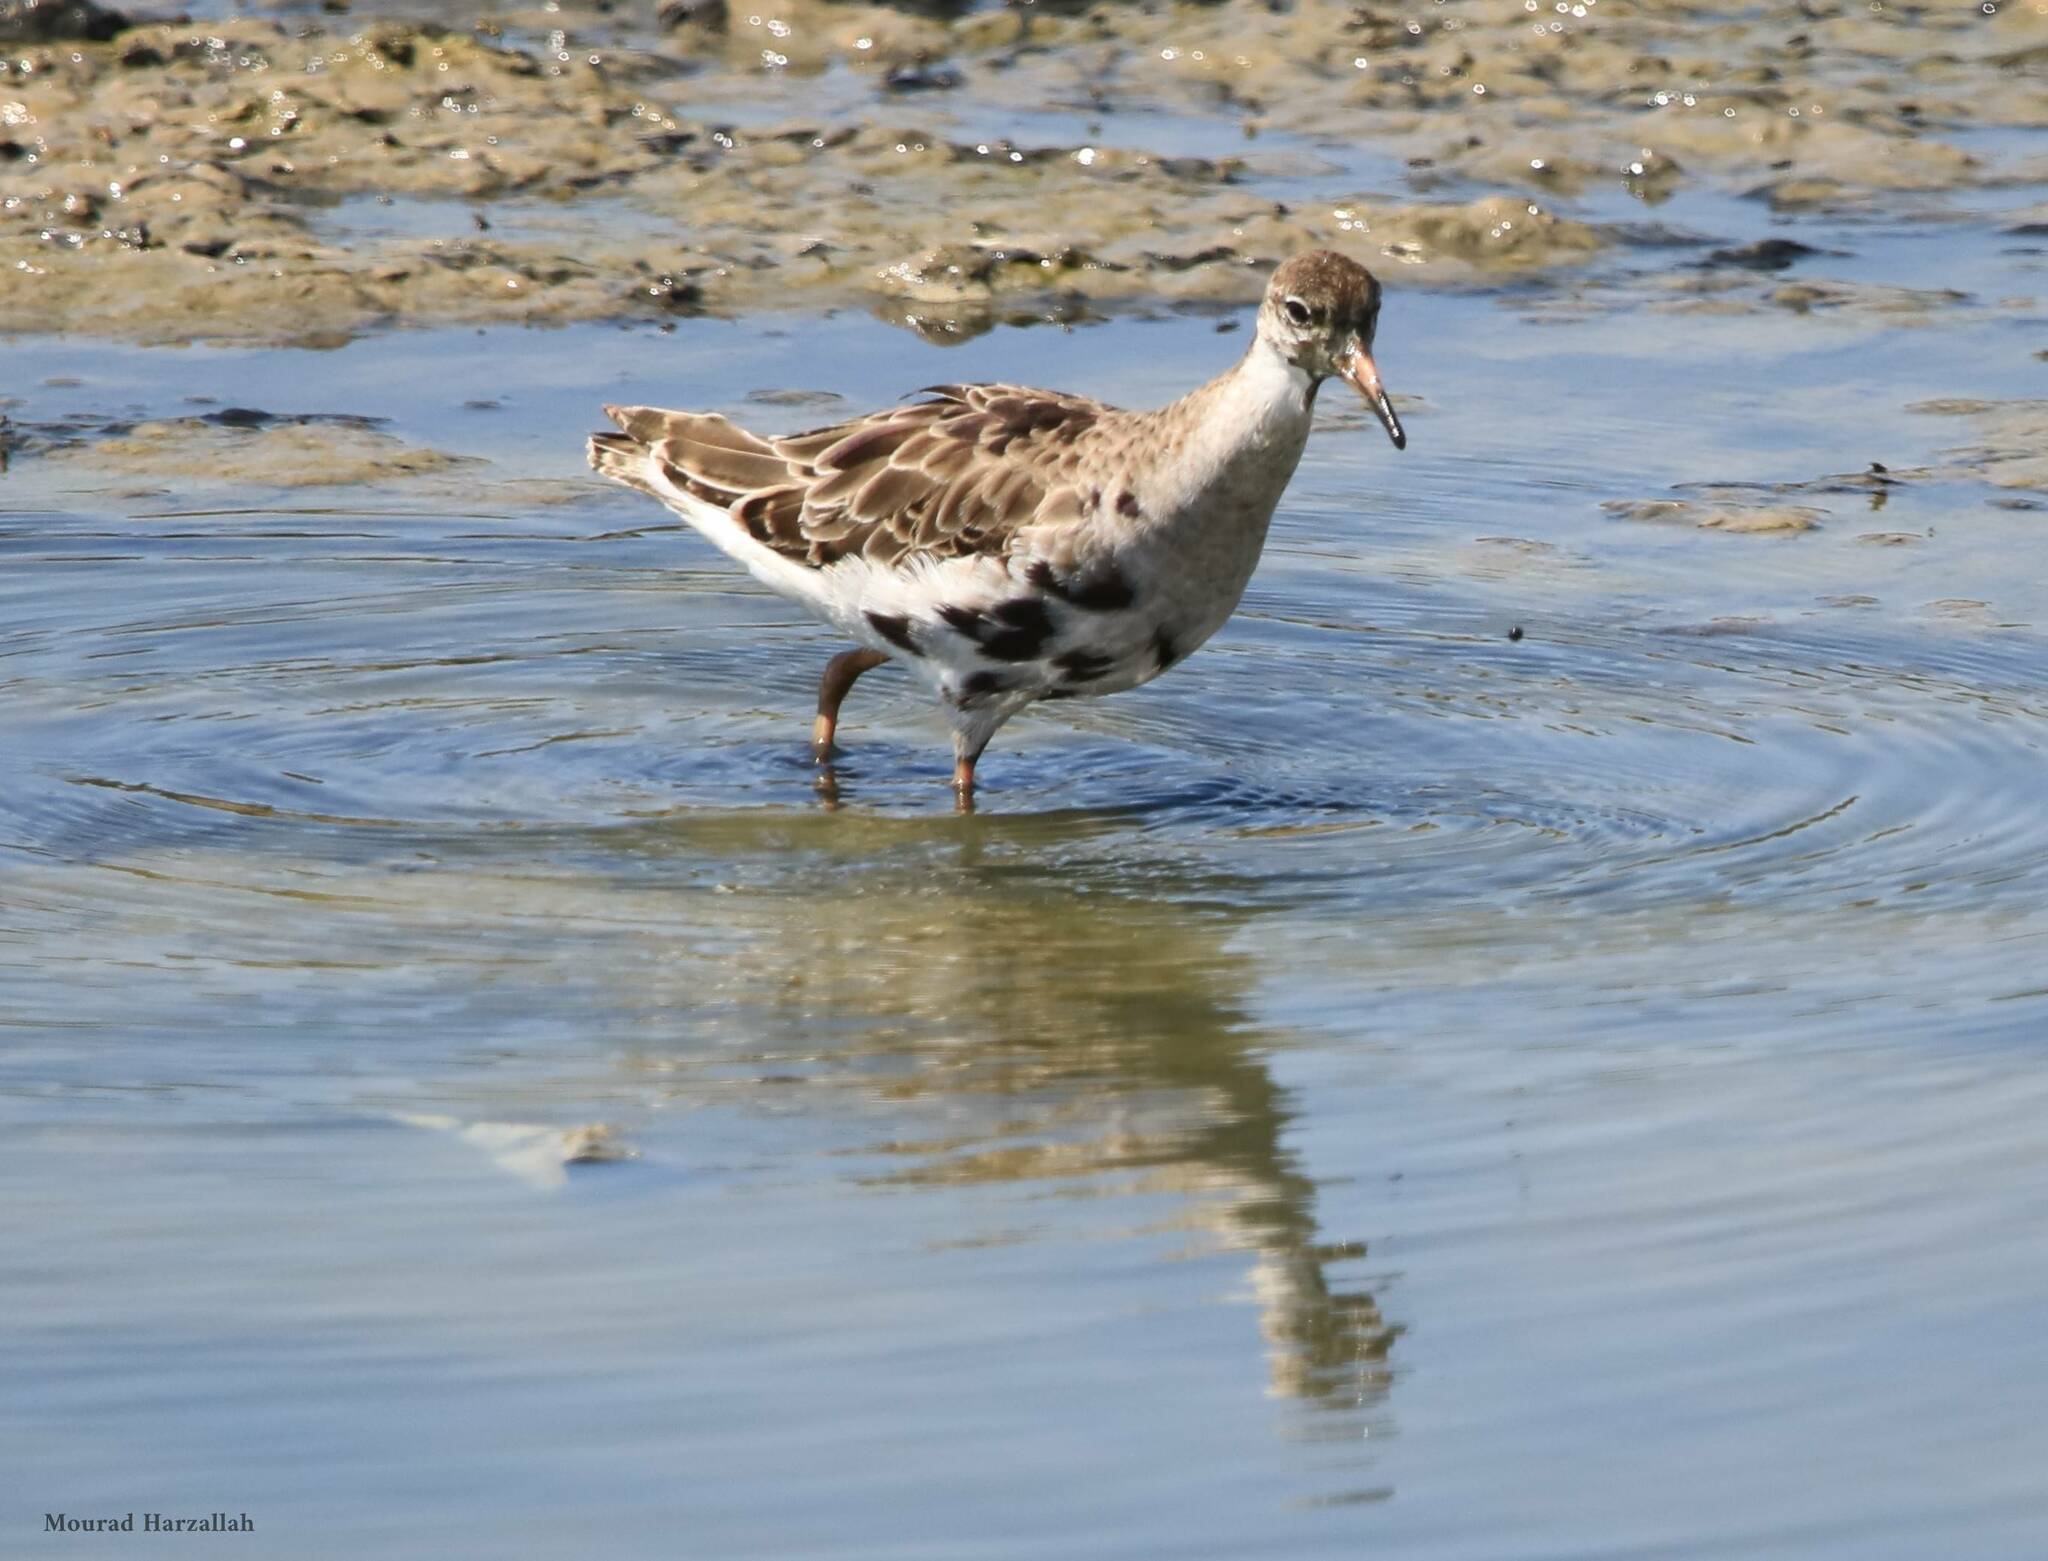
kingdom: Animalia
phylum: Chordata
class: Aves
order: Charadriiformes
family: Scolopacidae
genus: Calidris
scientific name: Calidris pugnax
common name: Ruff
